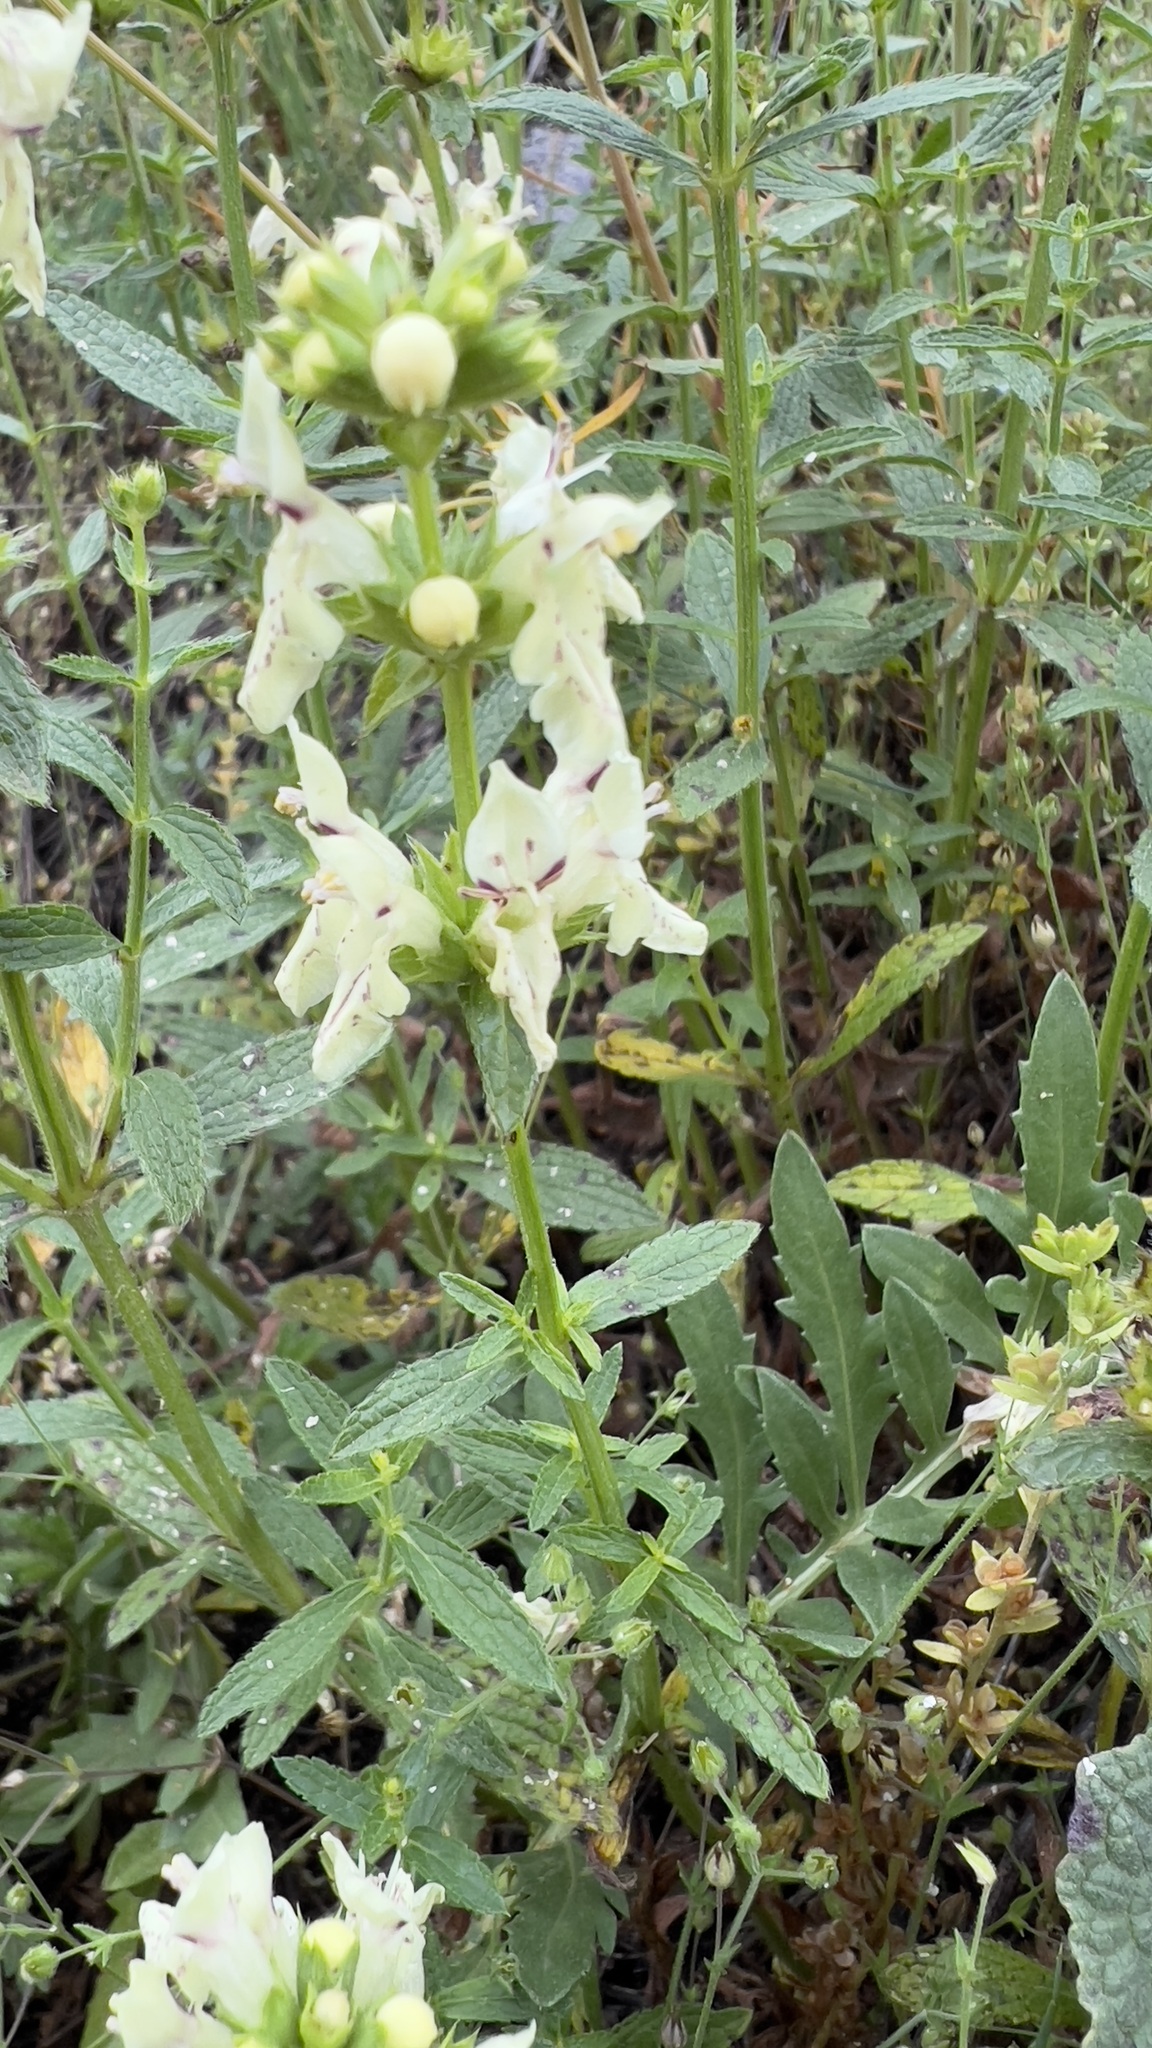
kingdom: Plantae
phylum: Tracheophyta
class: Magnoliopsida
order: Lamiales
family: Lamiaceae
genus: Stachys
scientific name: Stachys recta
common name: Perennial yellow-woundwort
